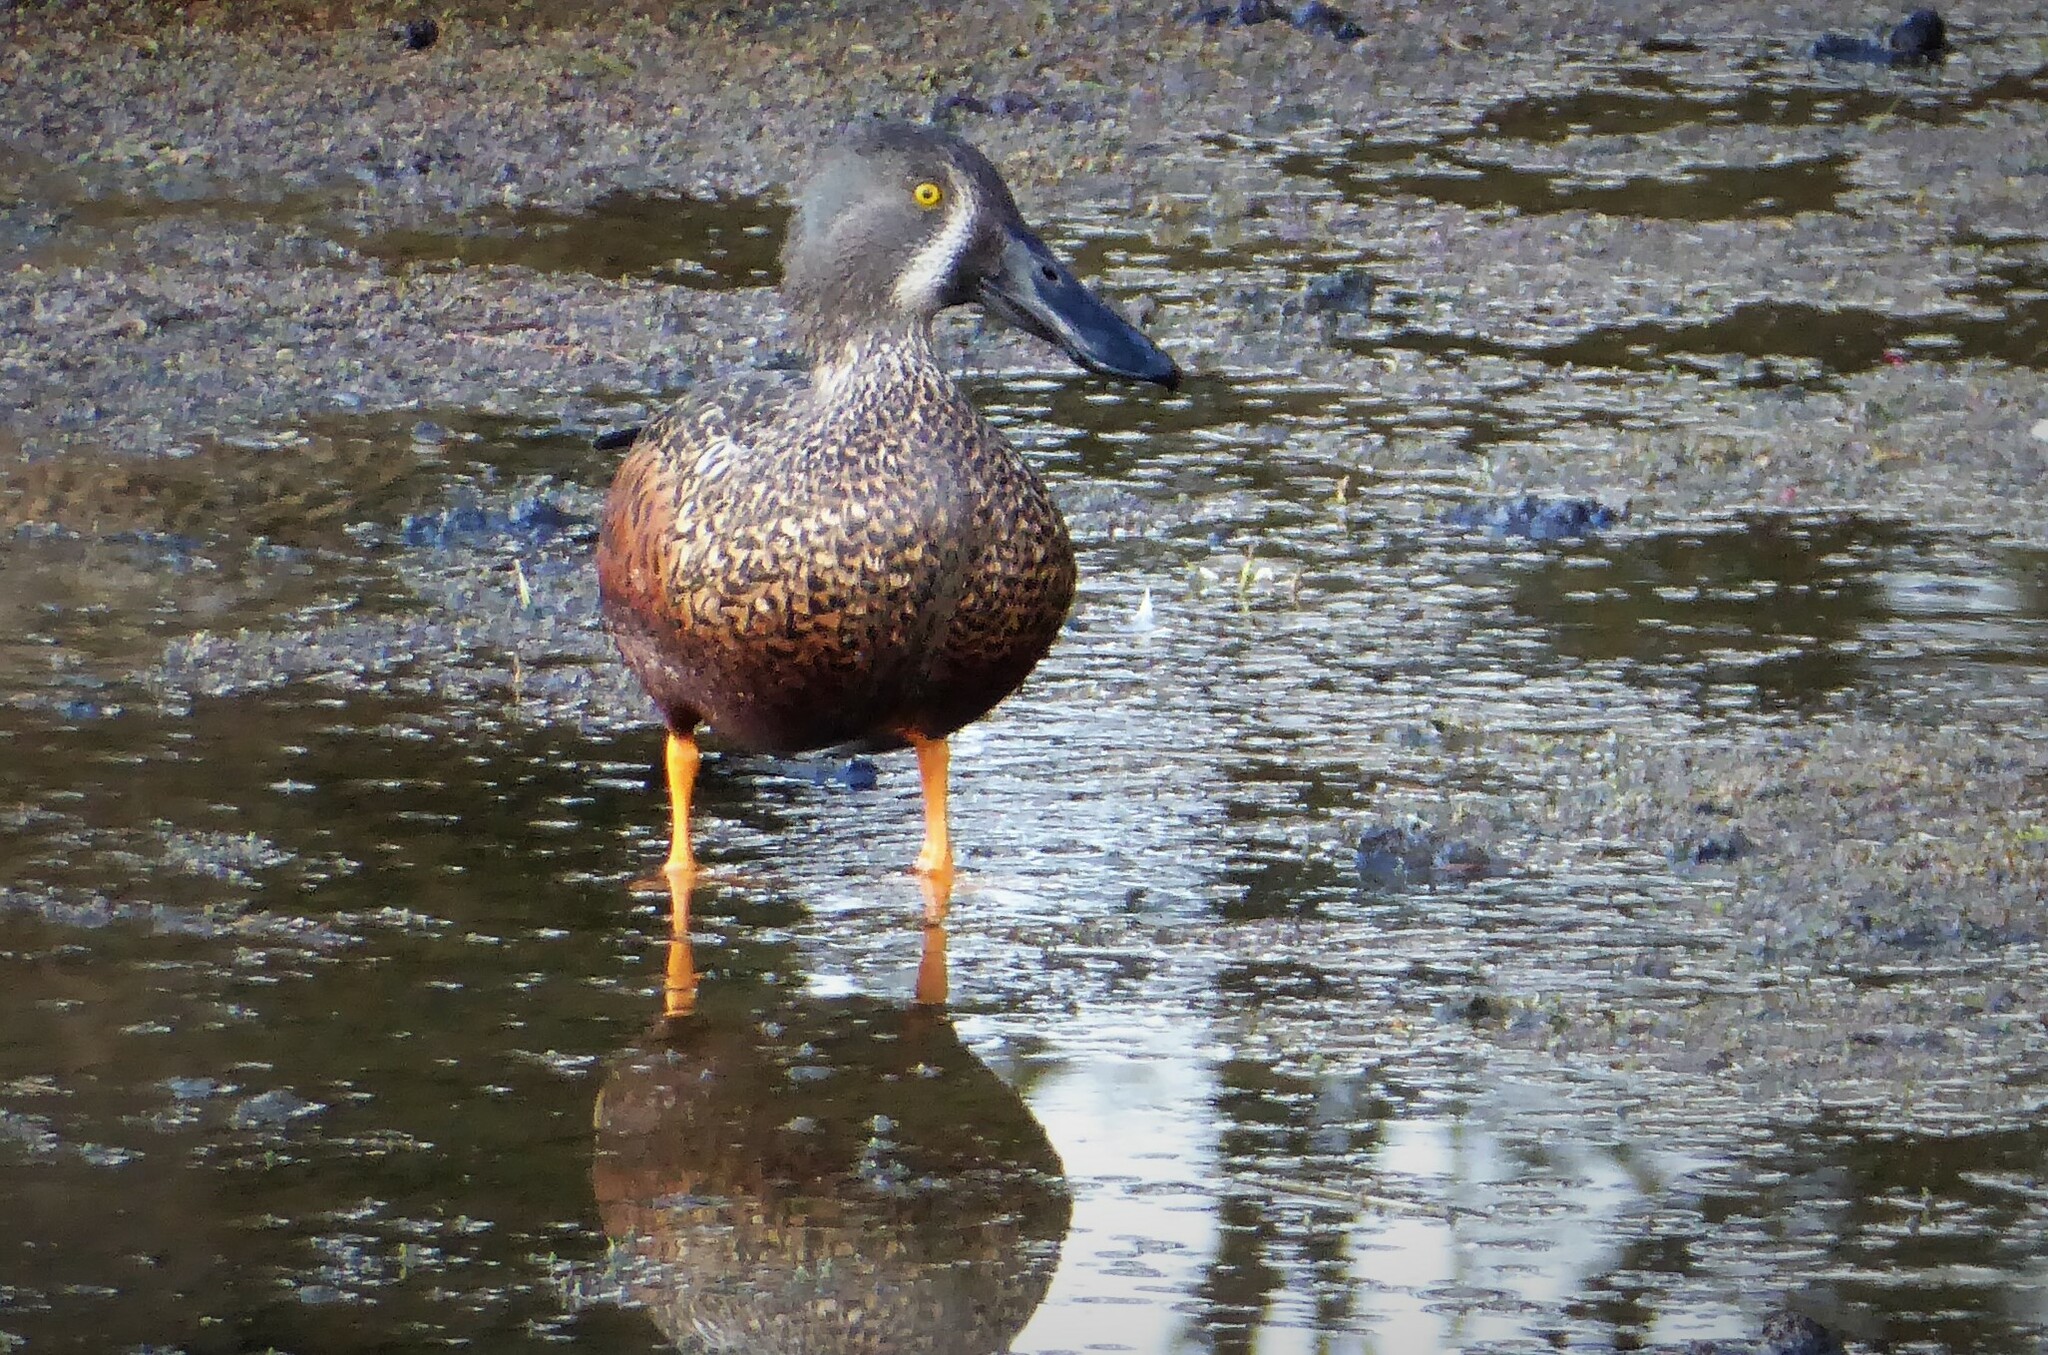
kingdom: Animalia
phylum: Chordata
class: Aves
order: Anseriformes
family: Anatidae
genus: Spatula
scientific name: Spatula rhynchotis
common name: Australian shoveler
